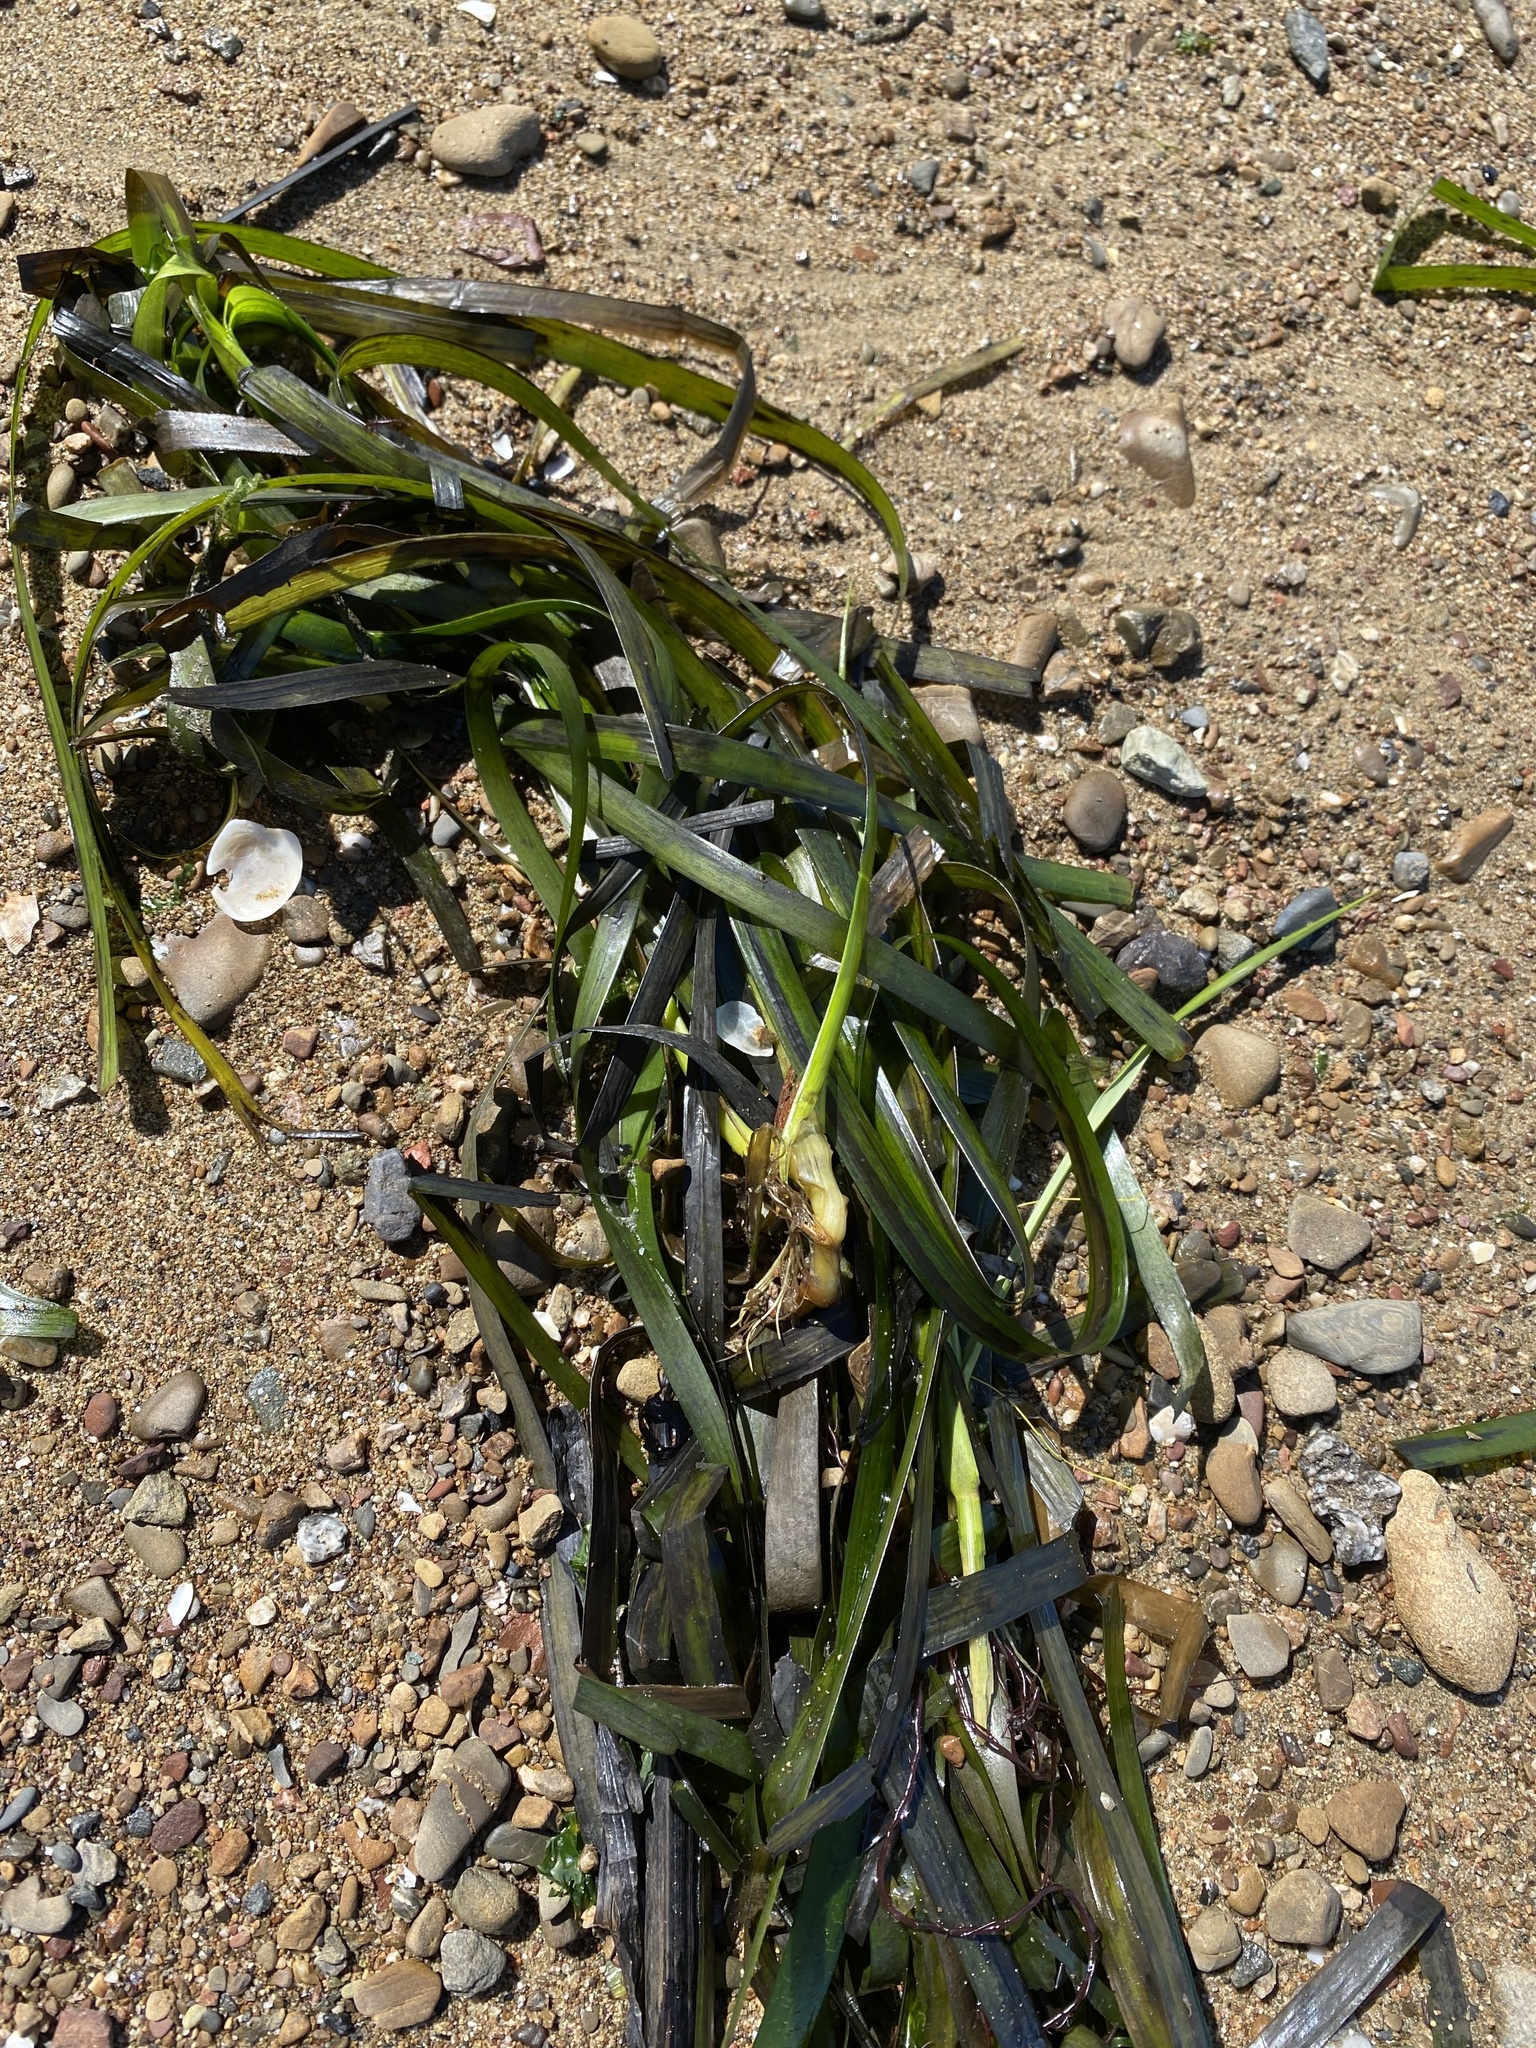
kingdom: Plantae
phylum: Tracheophyta
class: Liliopsida
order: Alismatales
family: Zosteraceae
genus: Zostera
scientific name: Zostera marina
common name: Eelgrass
